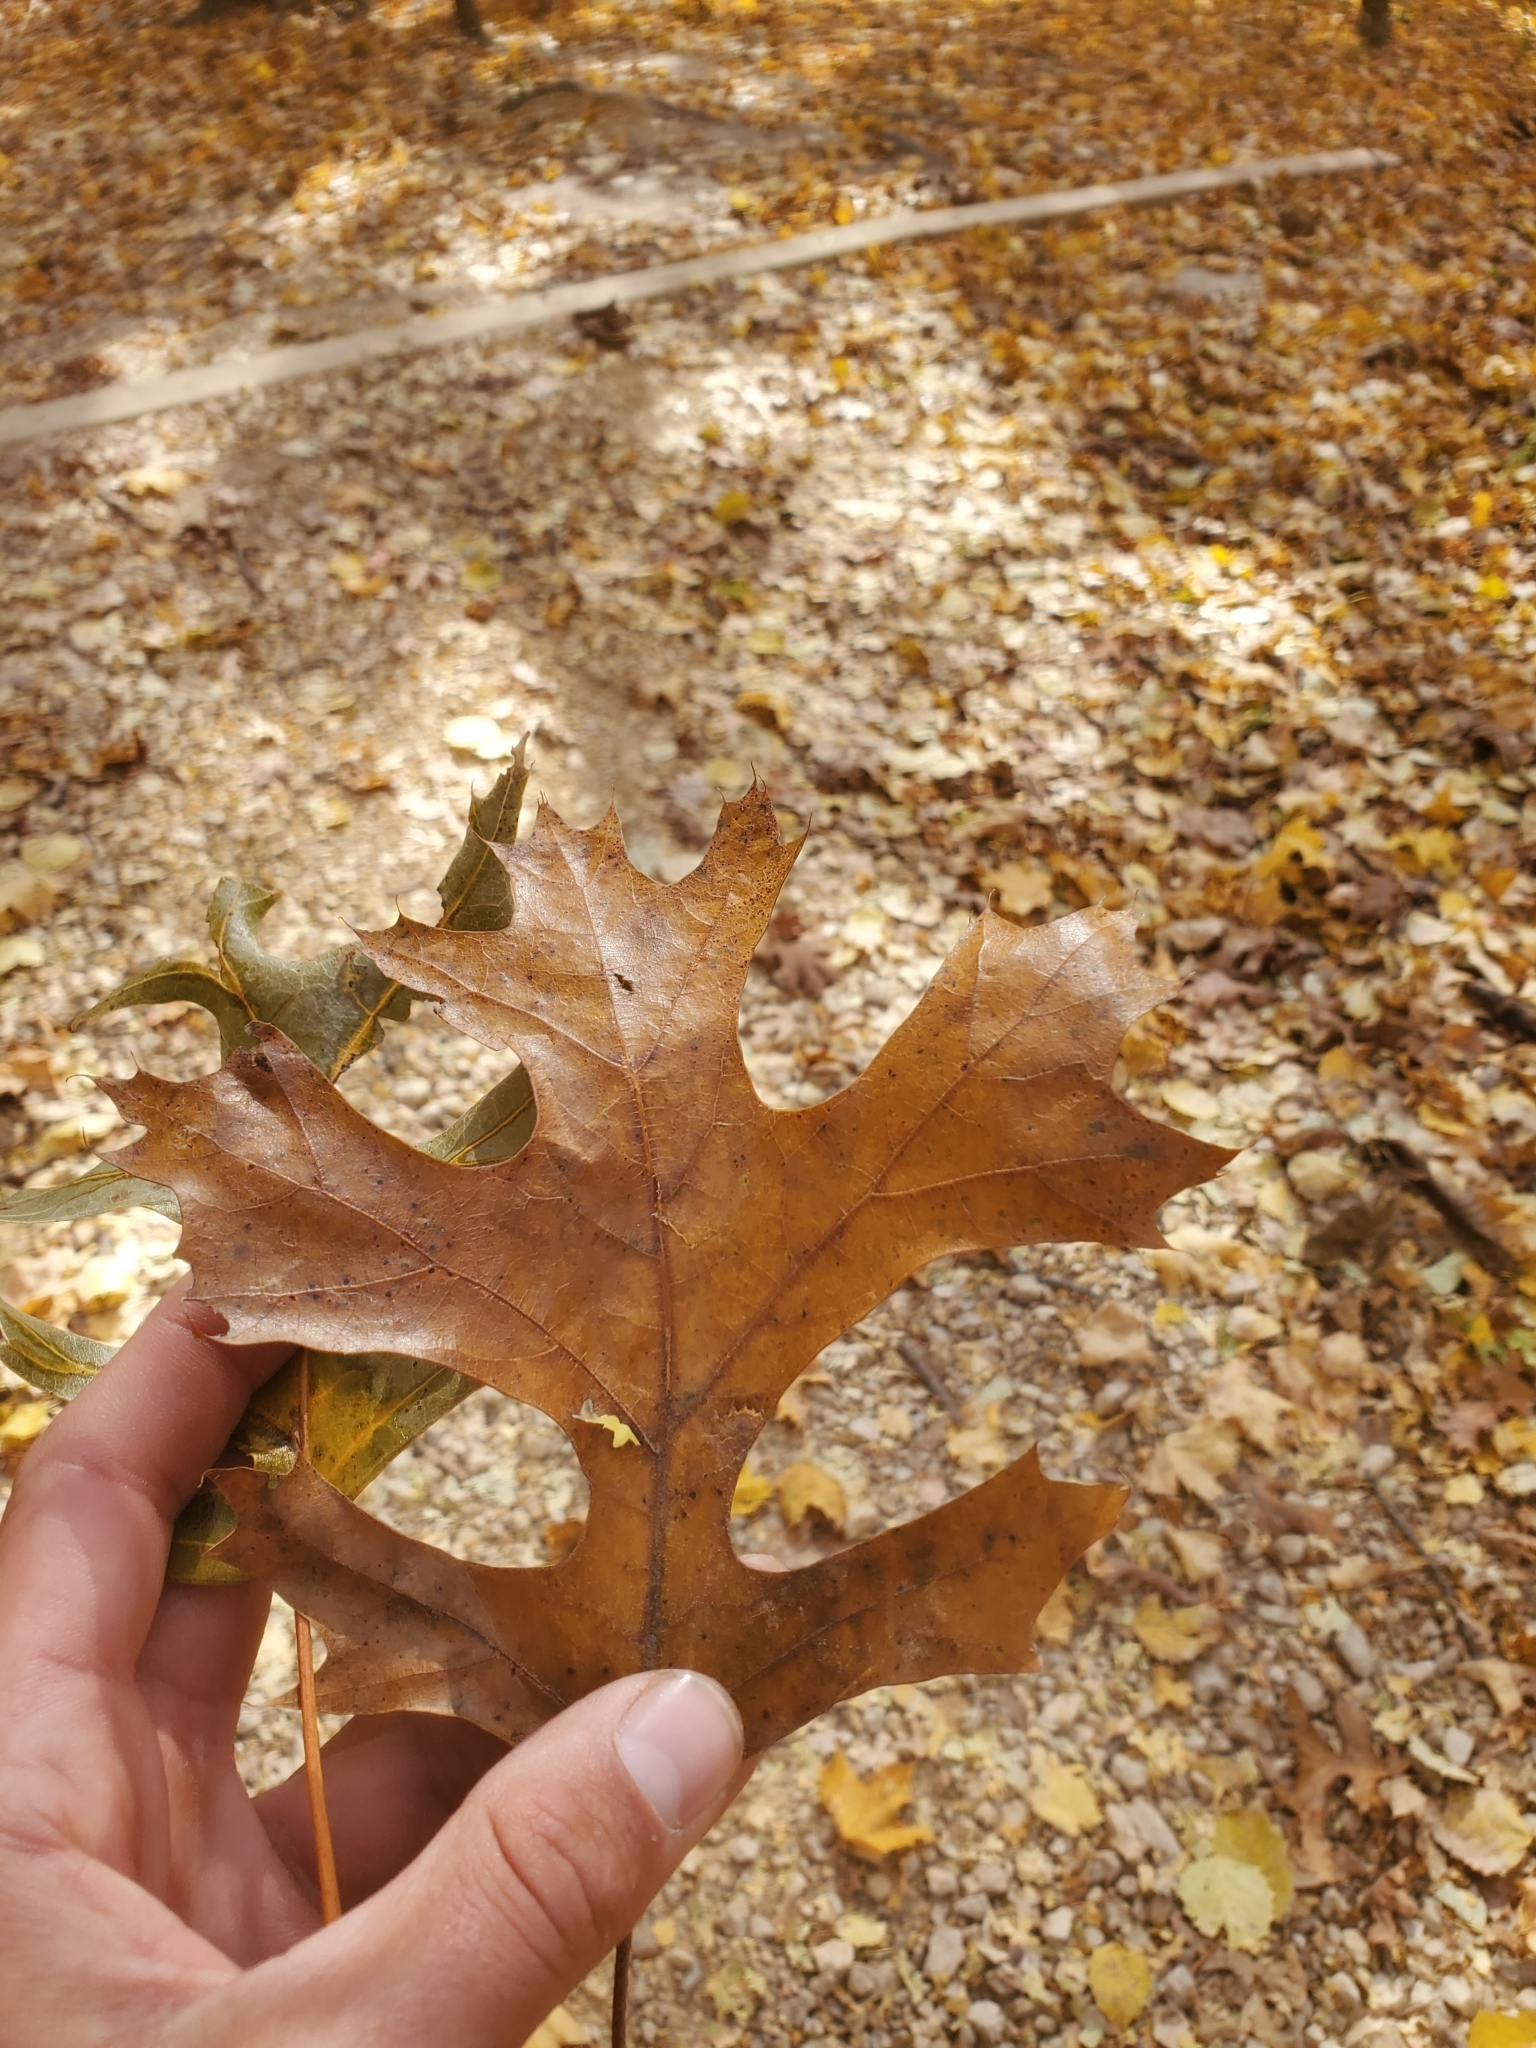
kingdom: Plantae
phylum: Tracheophyta
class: Magnoliopsida
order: Fagales
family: Fagaceae
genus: Quercus
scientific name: Quercus ellipsoidalis
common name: Hill's oak
